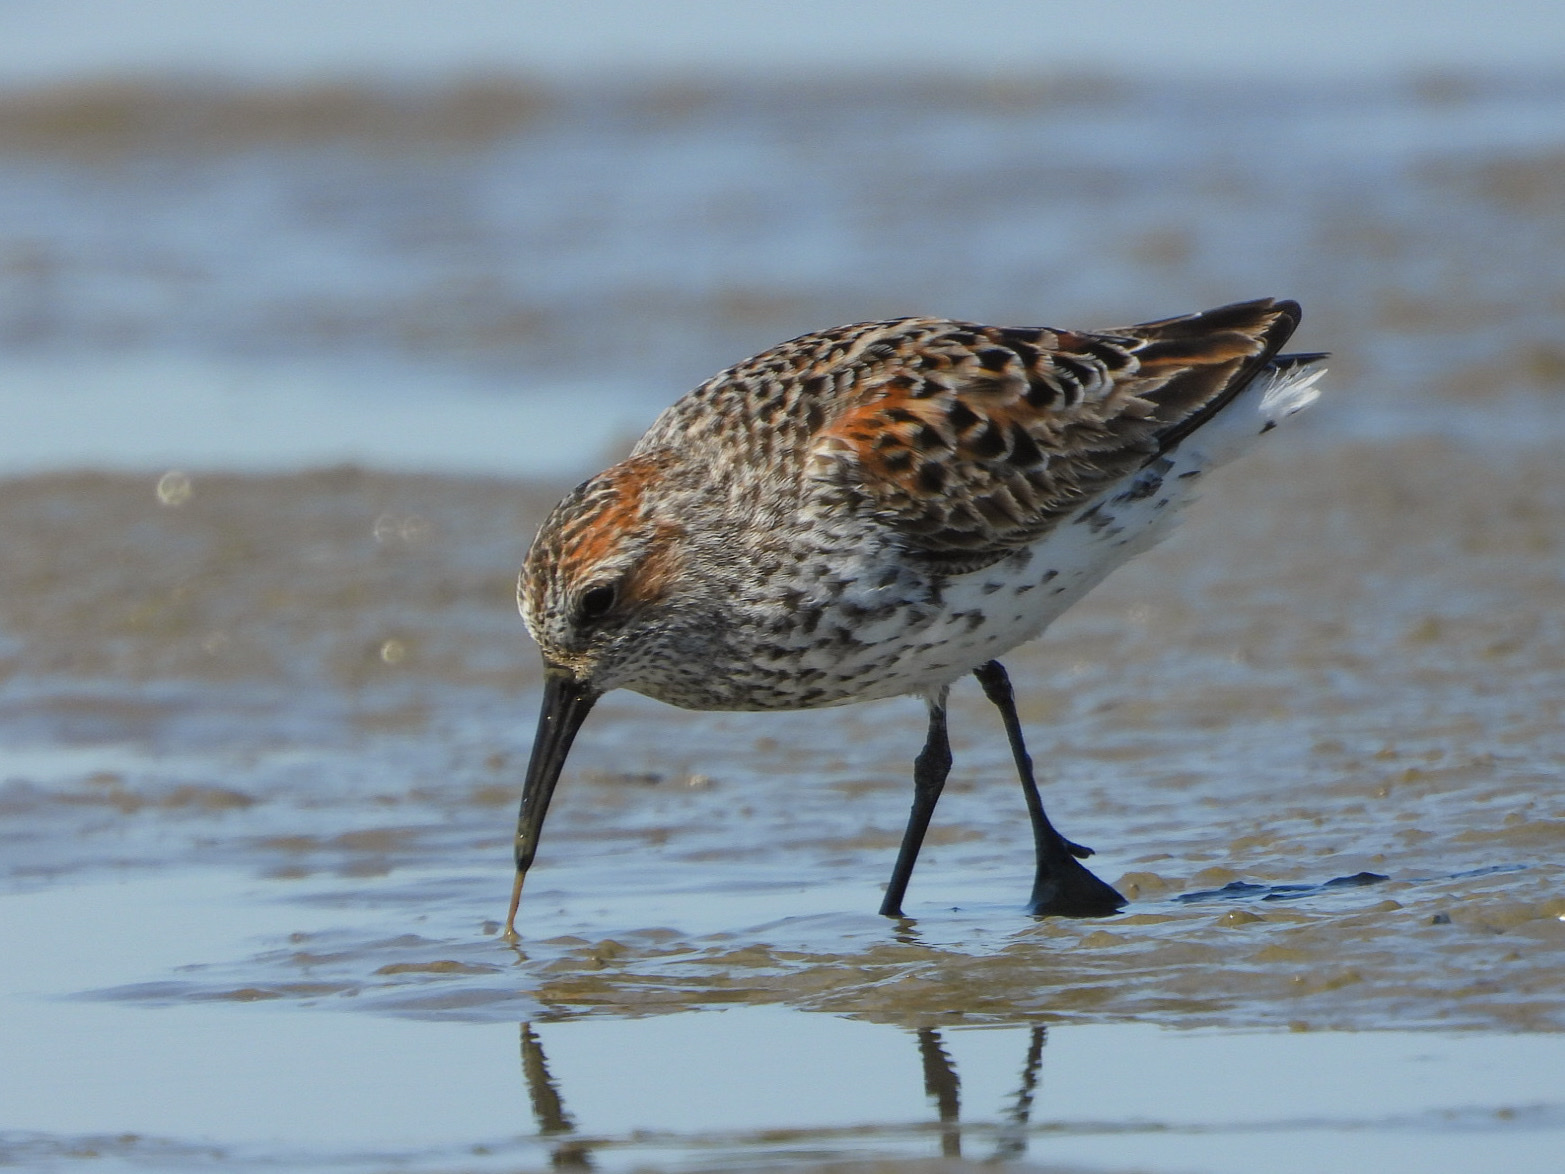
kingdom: Animalia
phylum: Chordata
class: Aves
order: Charadriiformes
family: Scolopacidae
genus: Calidris
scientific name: Calidris mauri
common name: Western sandpiper
